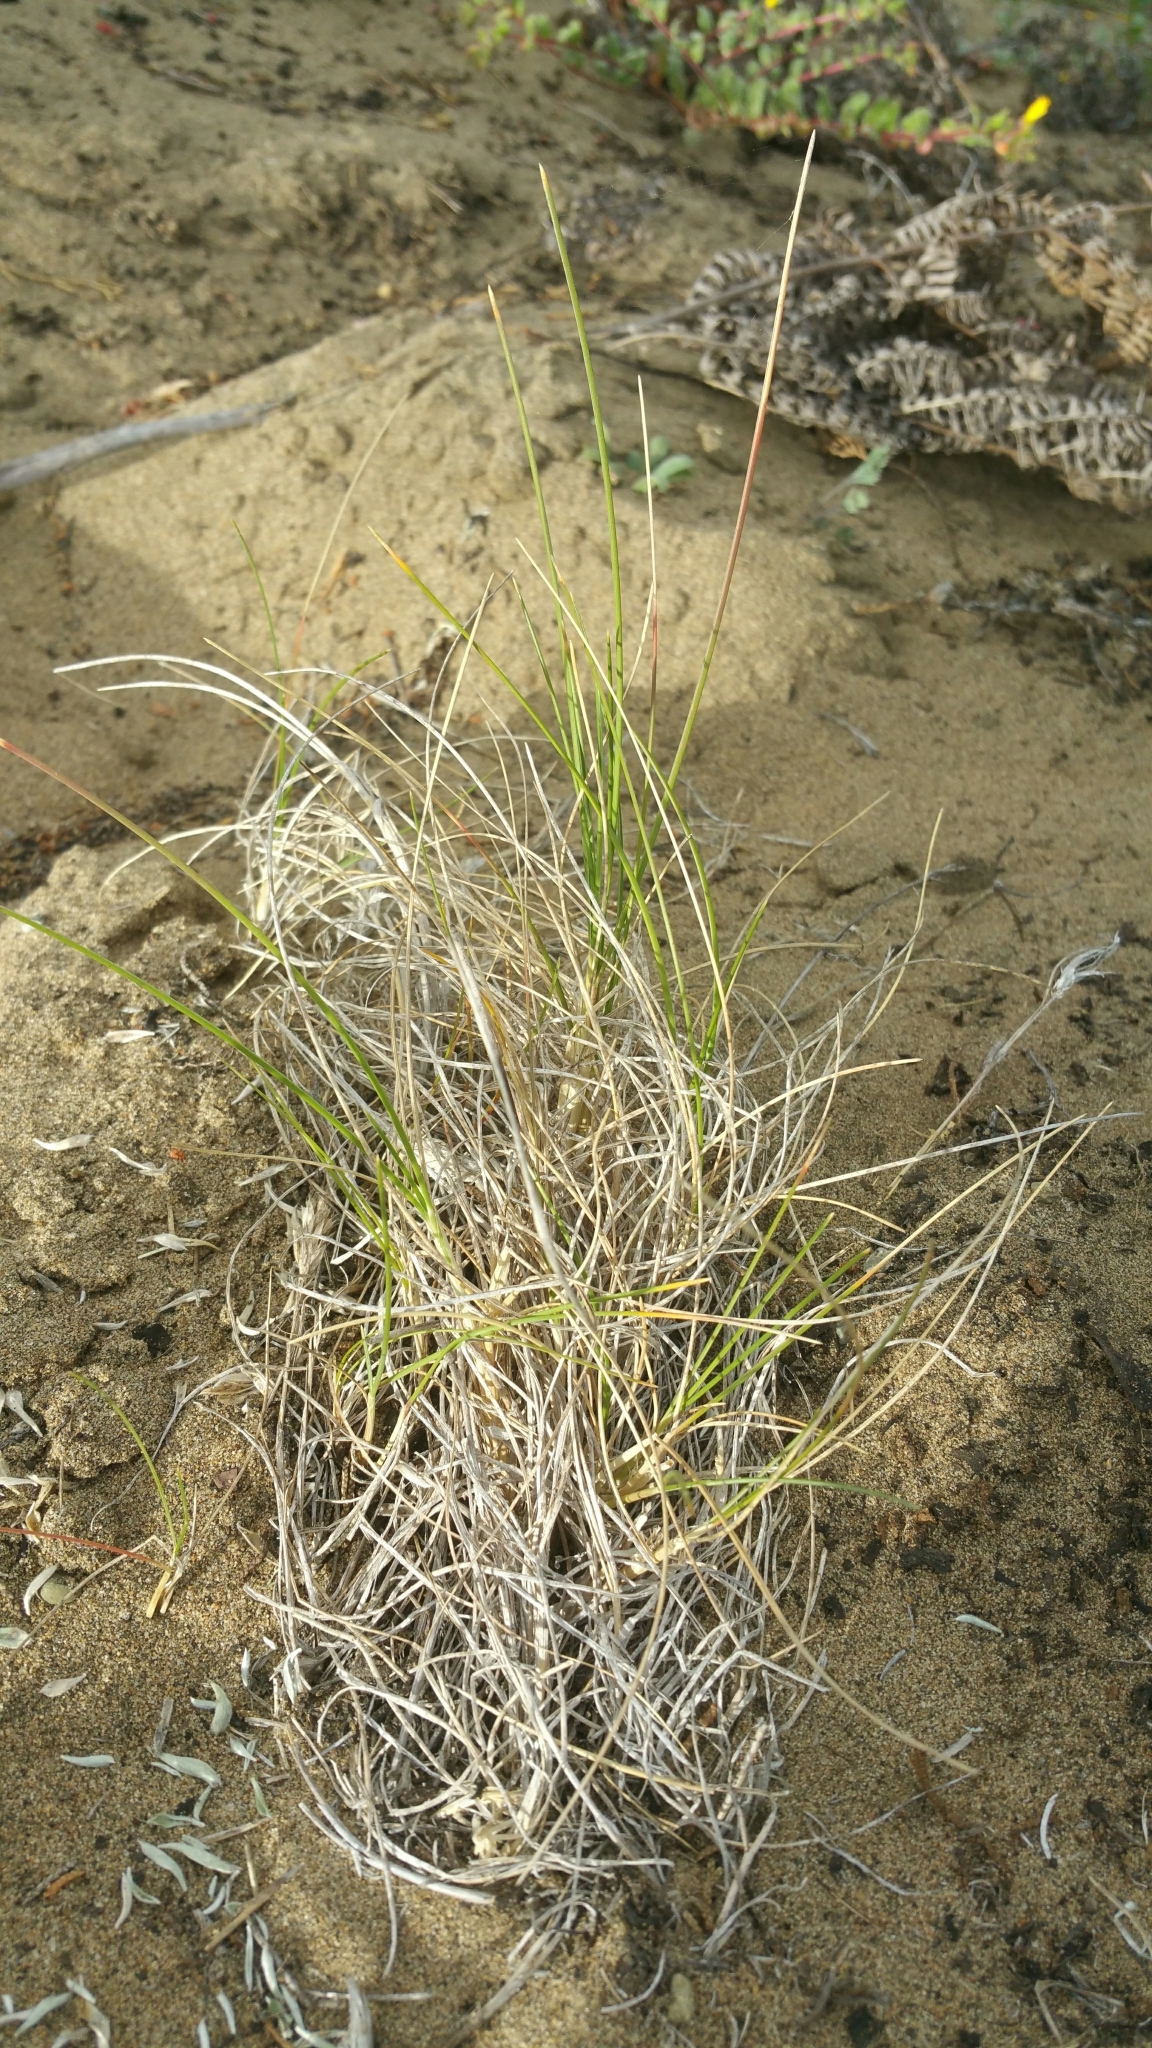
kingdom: Plantae
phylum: Tracheophyta
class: Liliopsida
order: Poales
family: Poaceae
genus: Poa
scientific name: Poa douglasii
